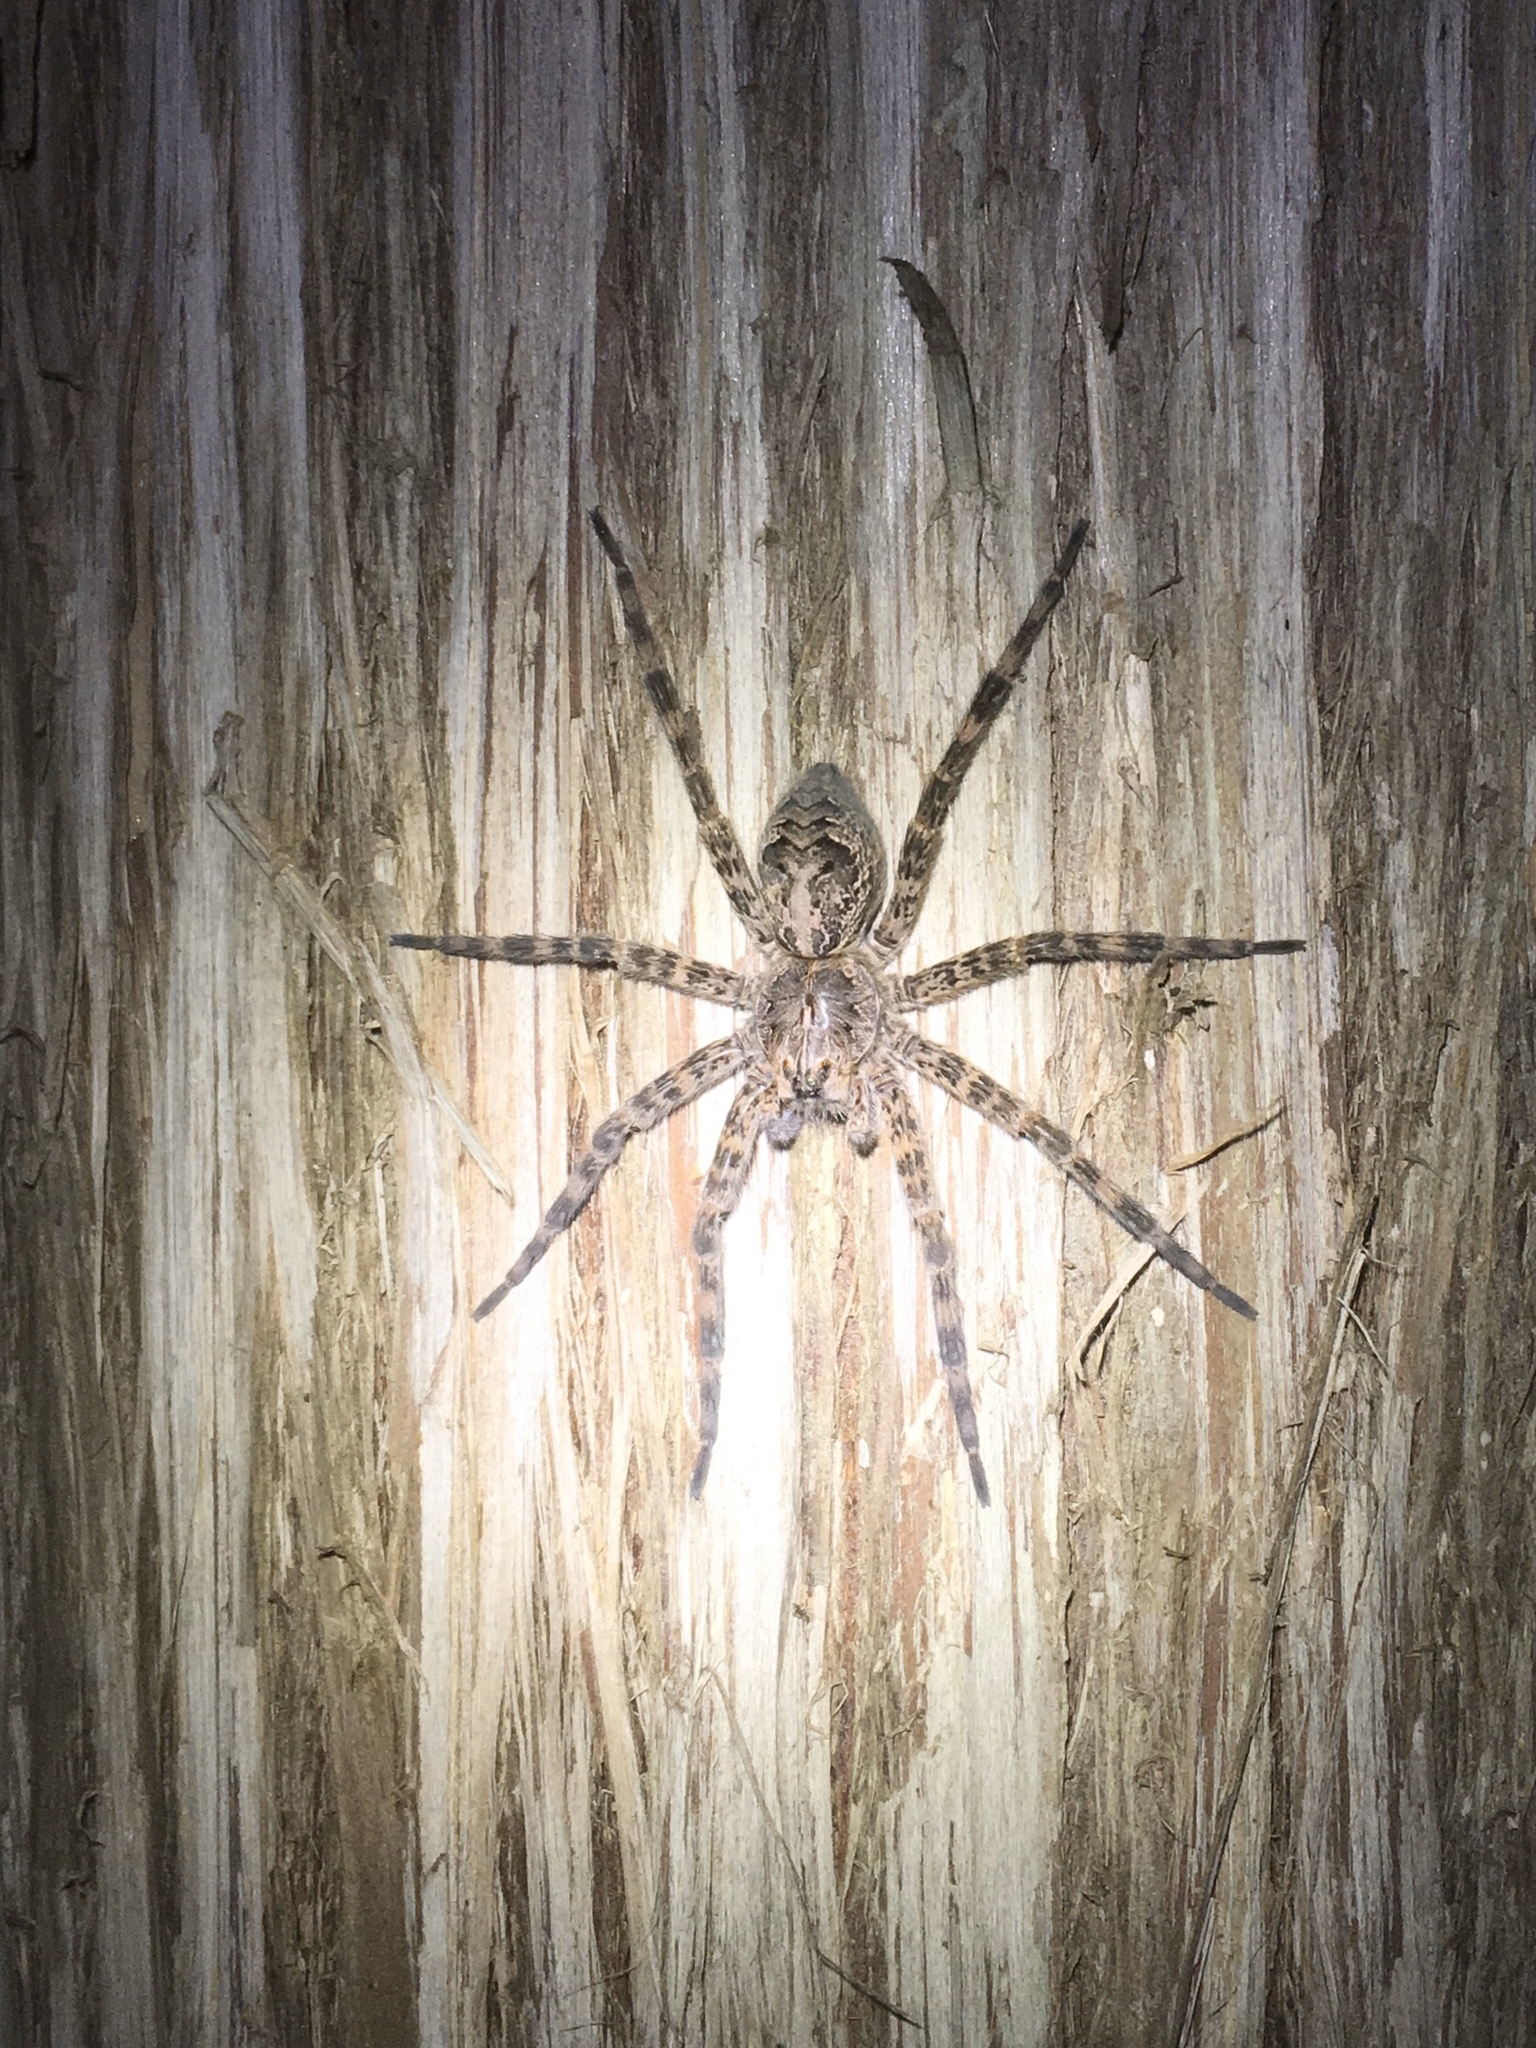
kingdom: Animalia
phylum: Arthropoda
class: Arachnida
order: Araneae
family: Pisauridae
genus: Dolomedes
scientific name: Dolomedes tenebrosus
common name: Dark fishing spider
